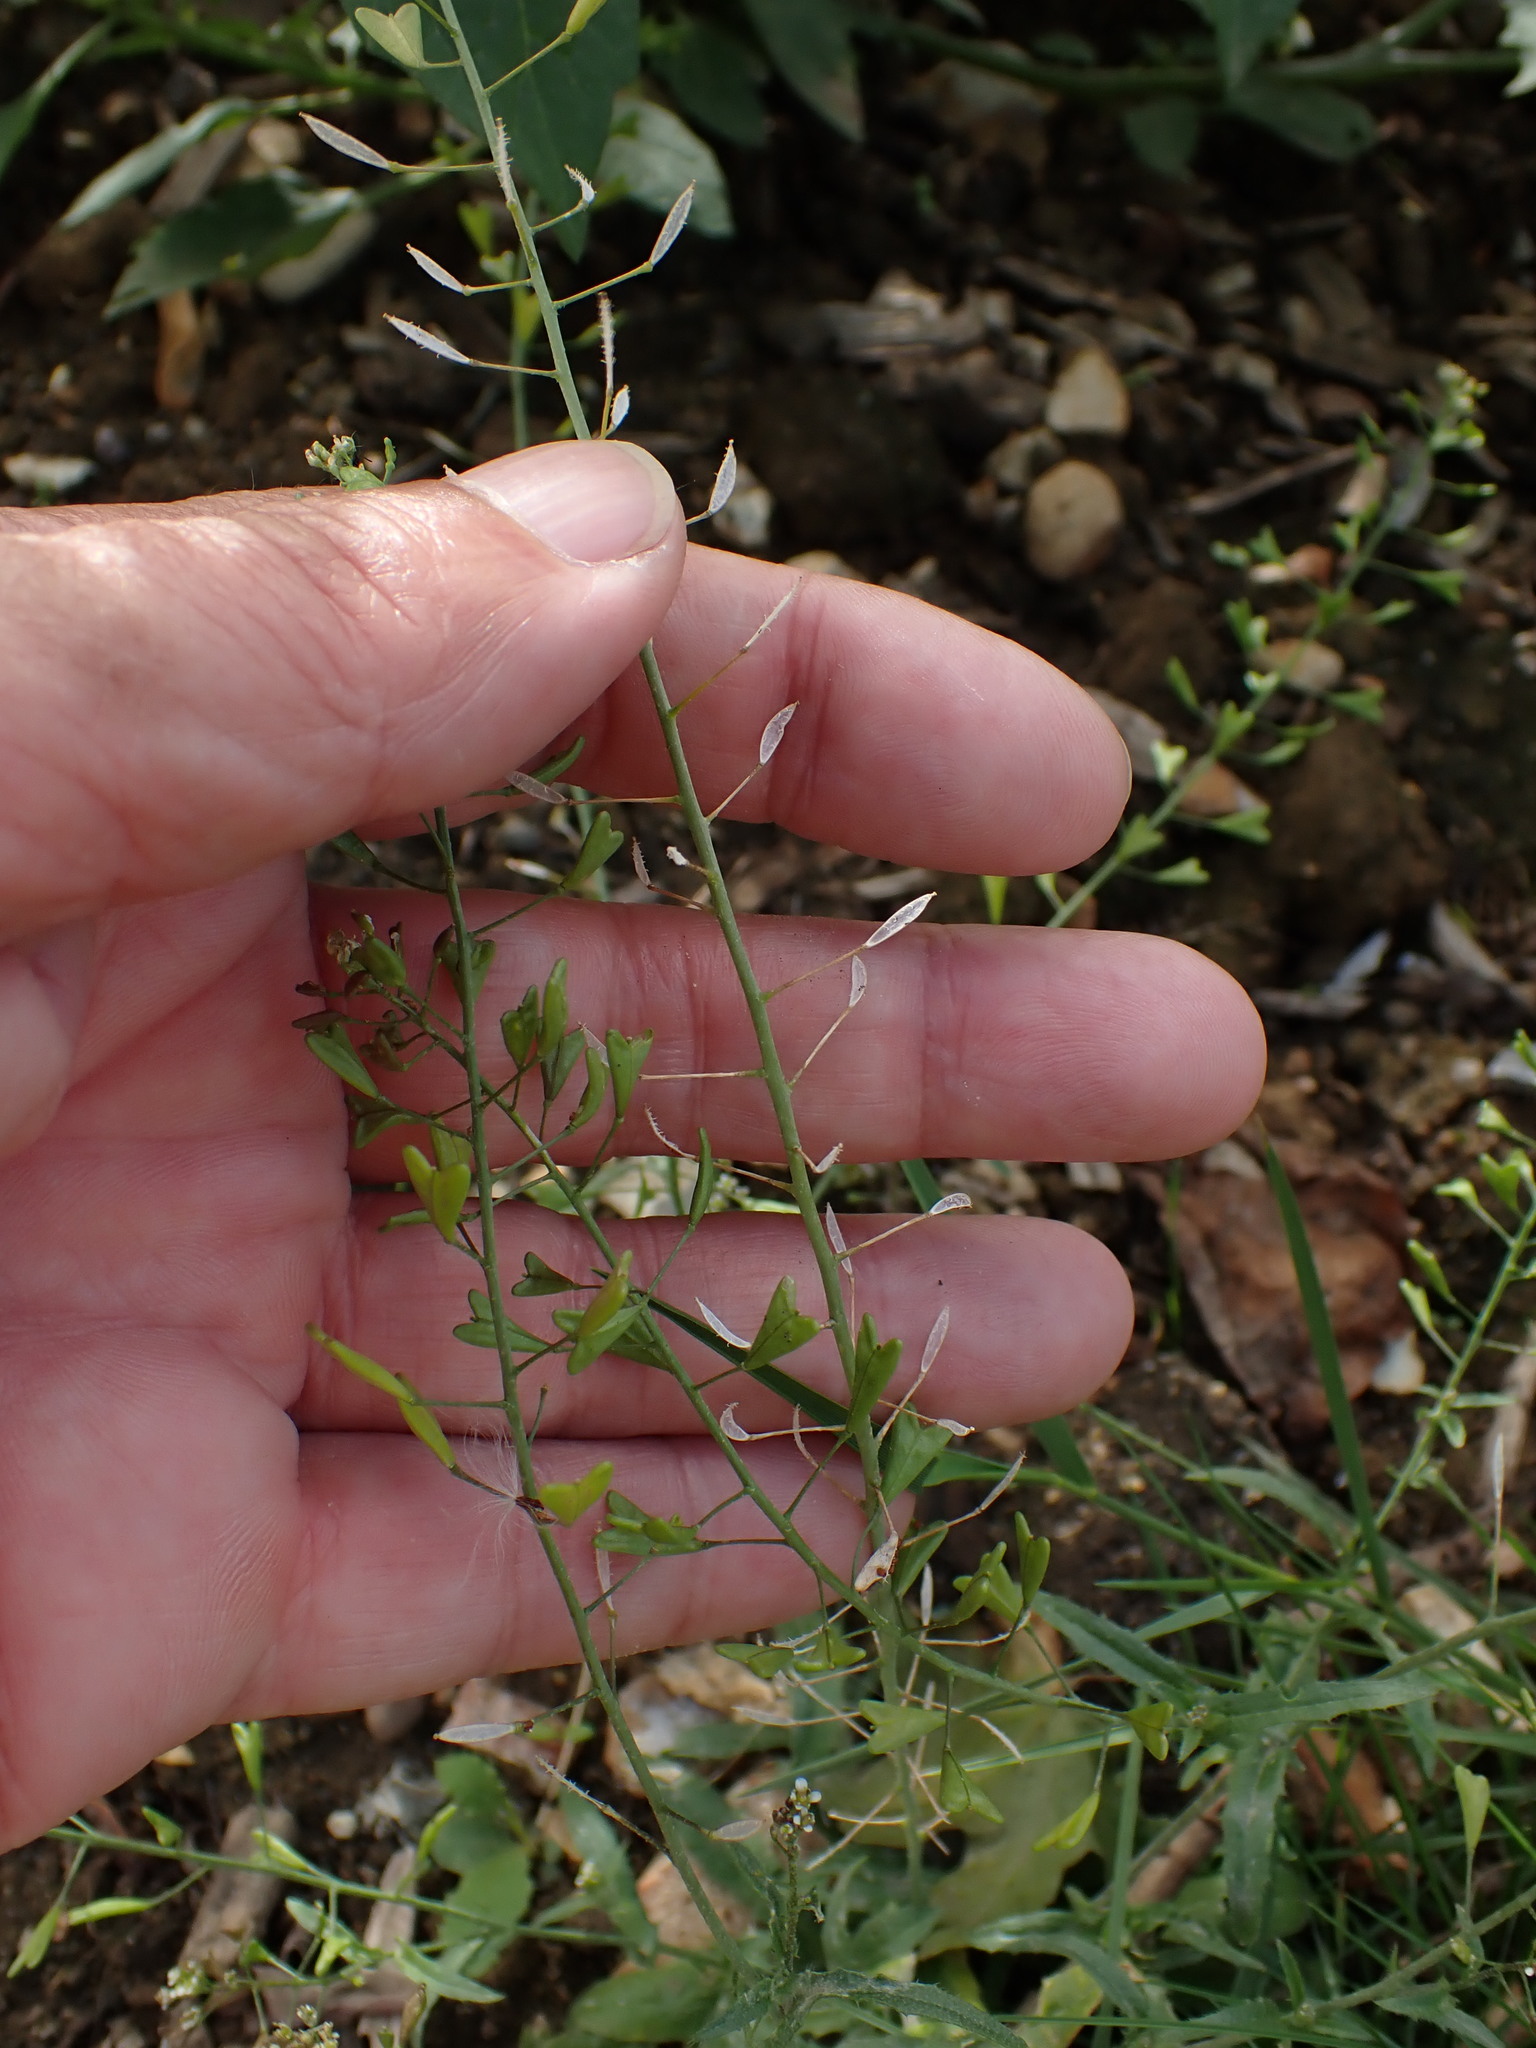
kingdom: Plantae
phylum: Tracheophyta
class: Magnoliopsida
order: Brassicales
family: Brassicaceae
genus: Capsella
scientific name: Capsella bursa-pastoris
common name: Shepherd's purse
